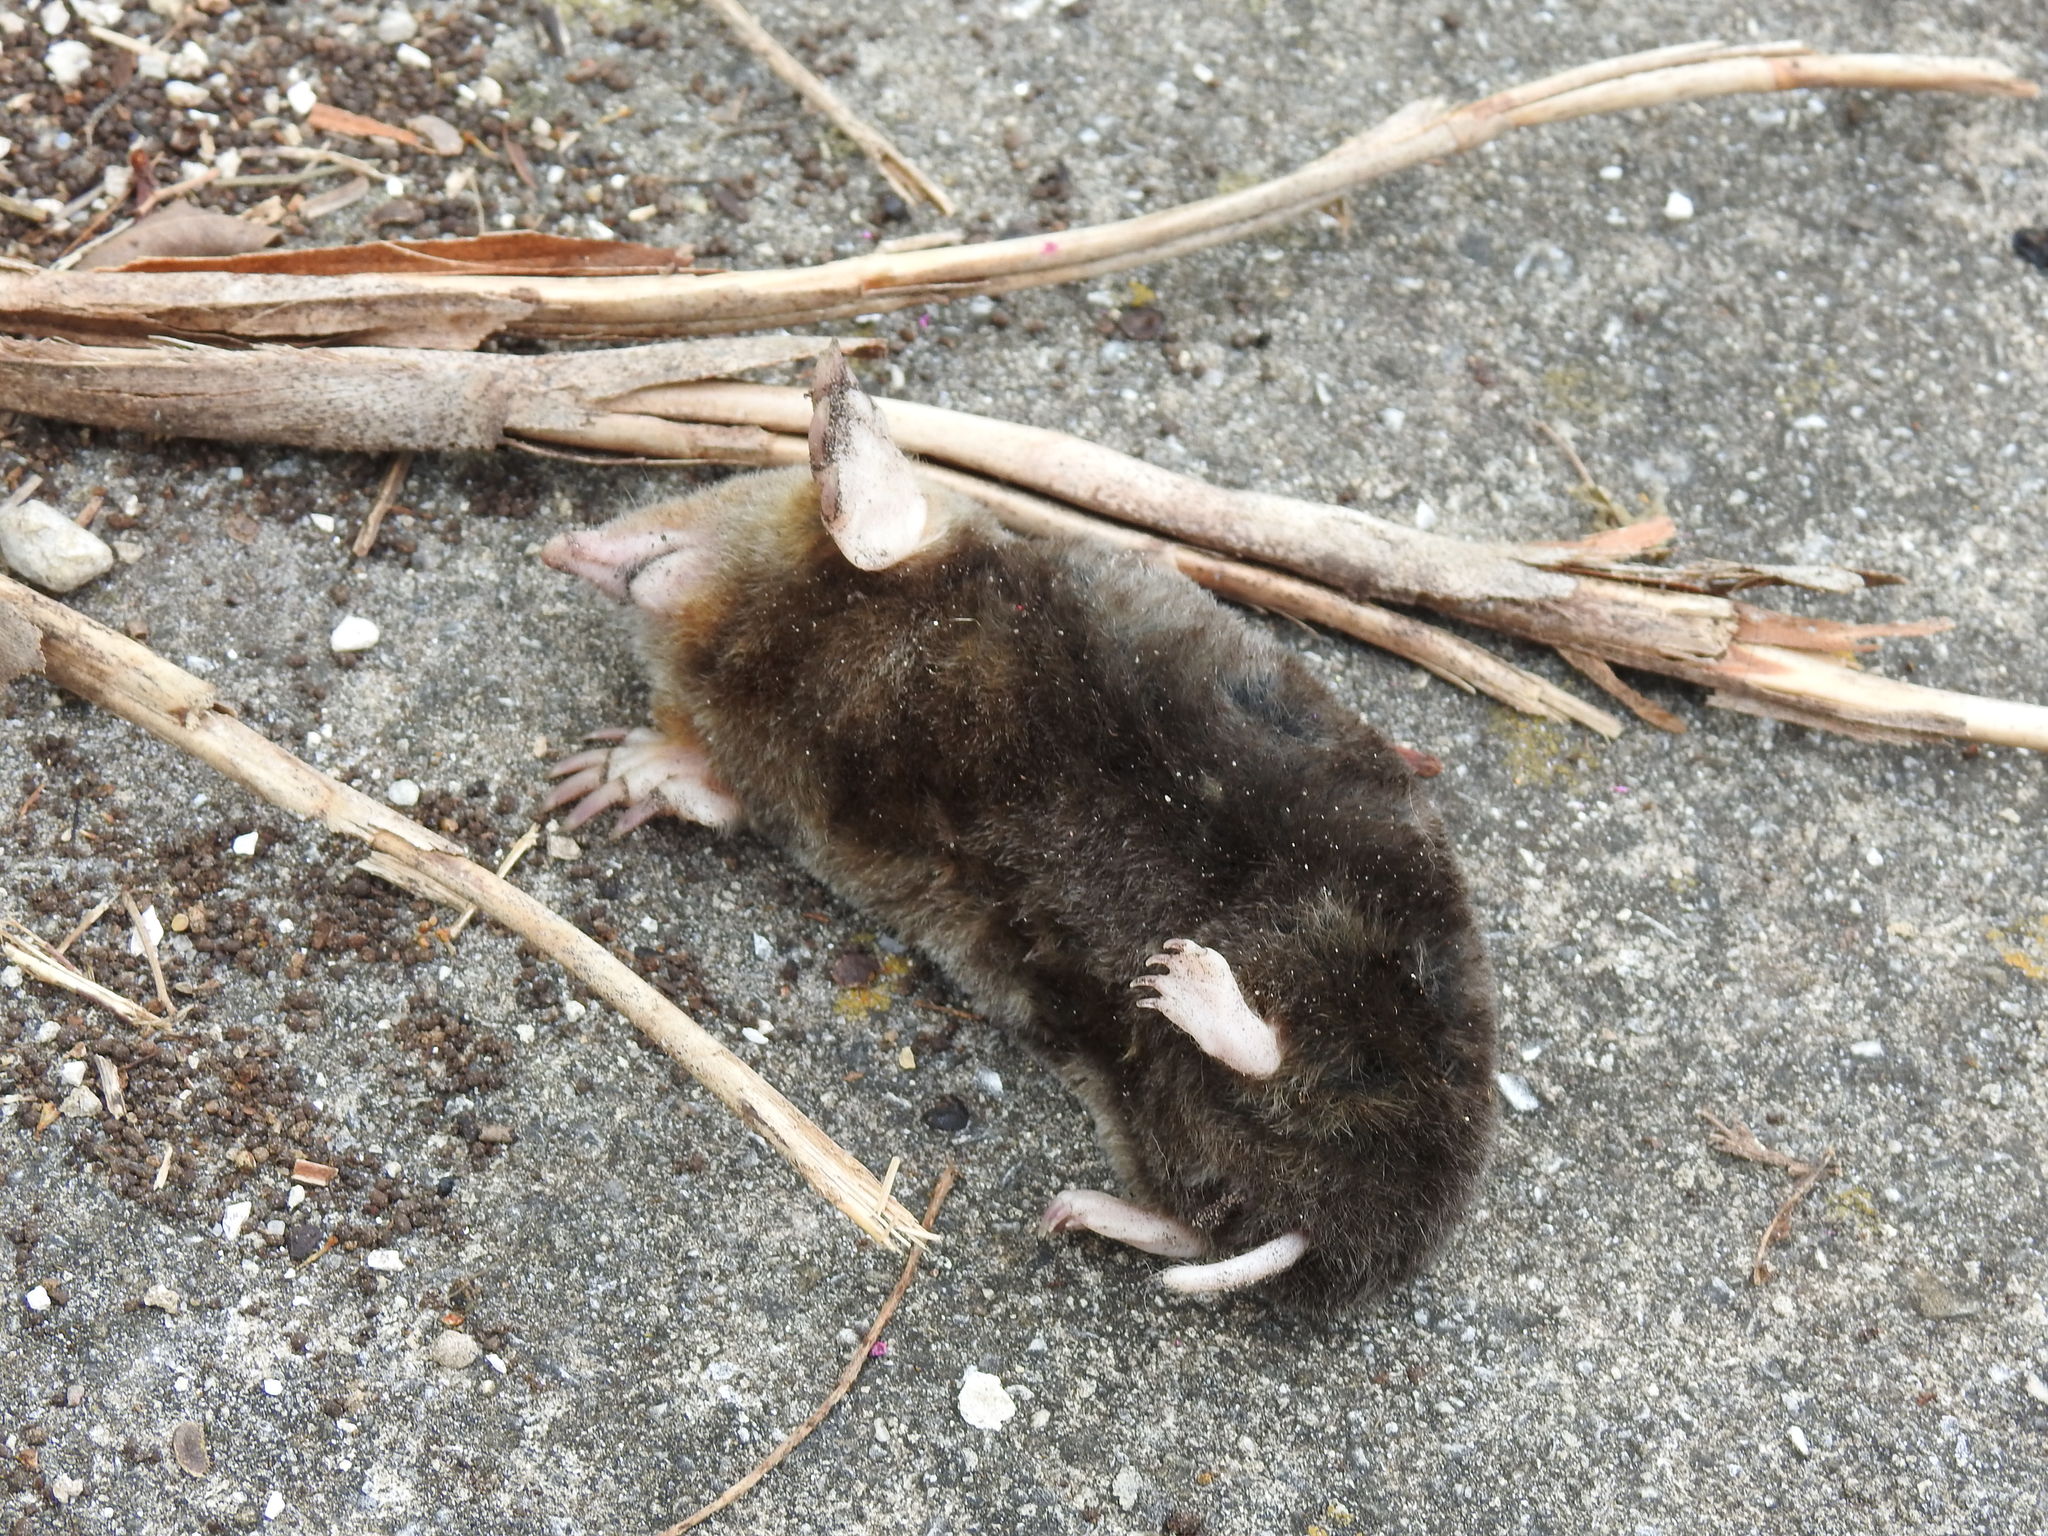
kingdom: Animalia
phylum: Chordata
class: Mammalia
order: Soricomorpha
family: Talpidae
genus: Scalopus
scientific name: Scalopus aquaticus
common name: Eastern mole
